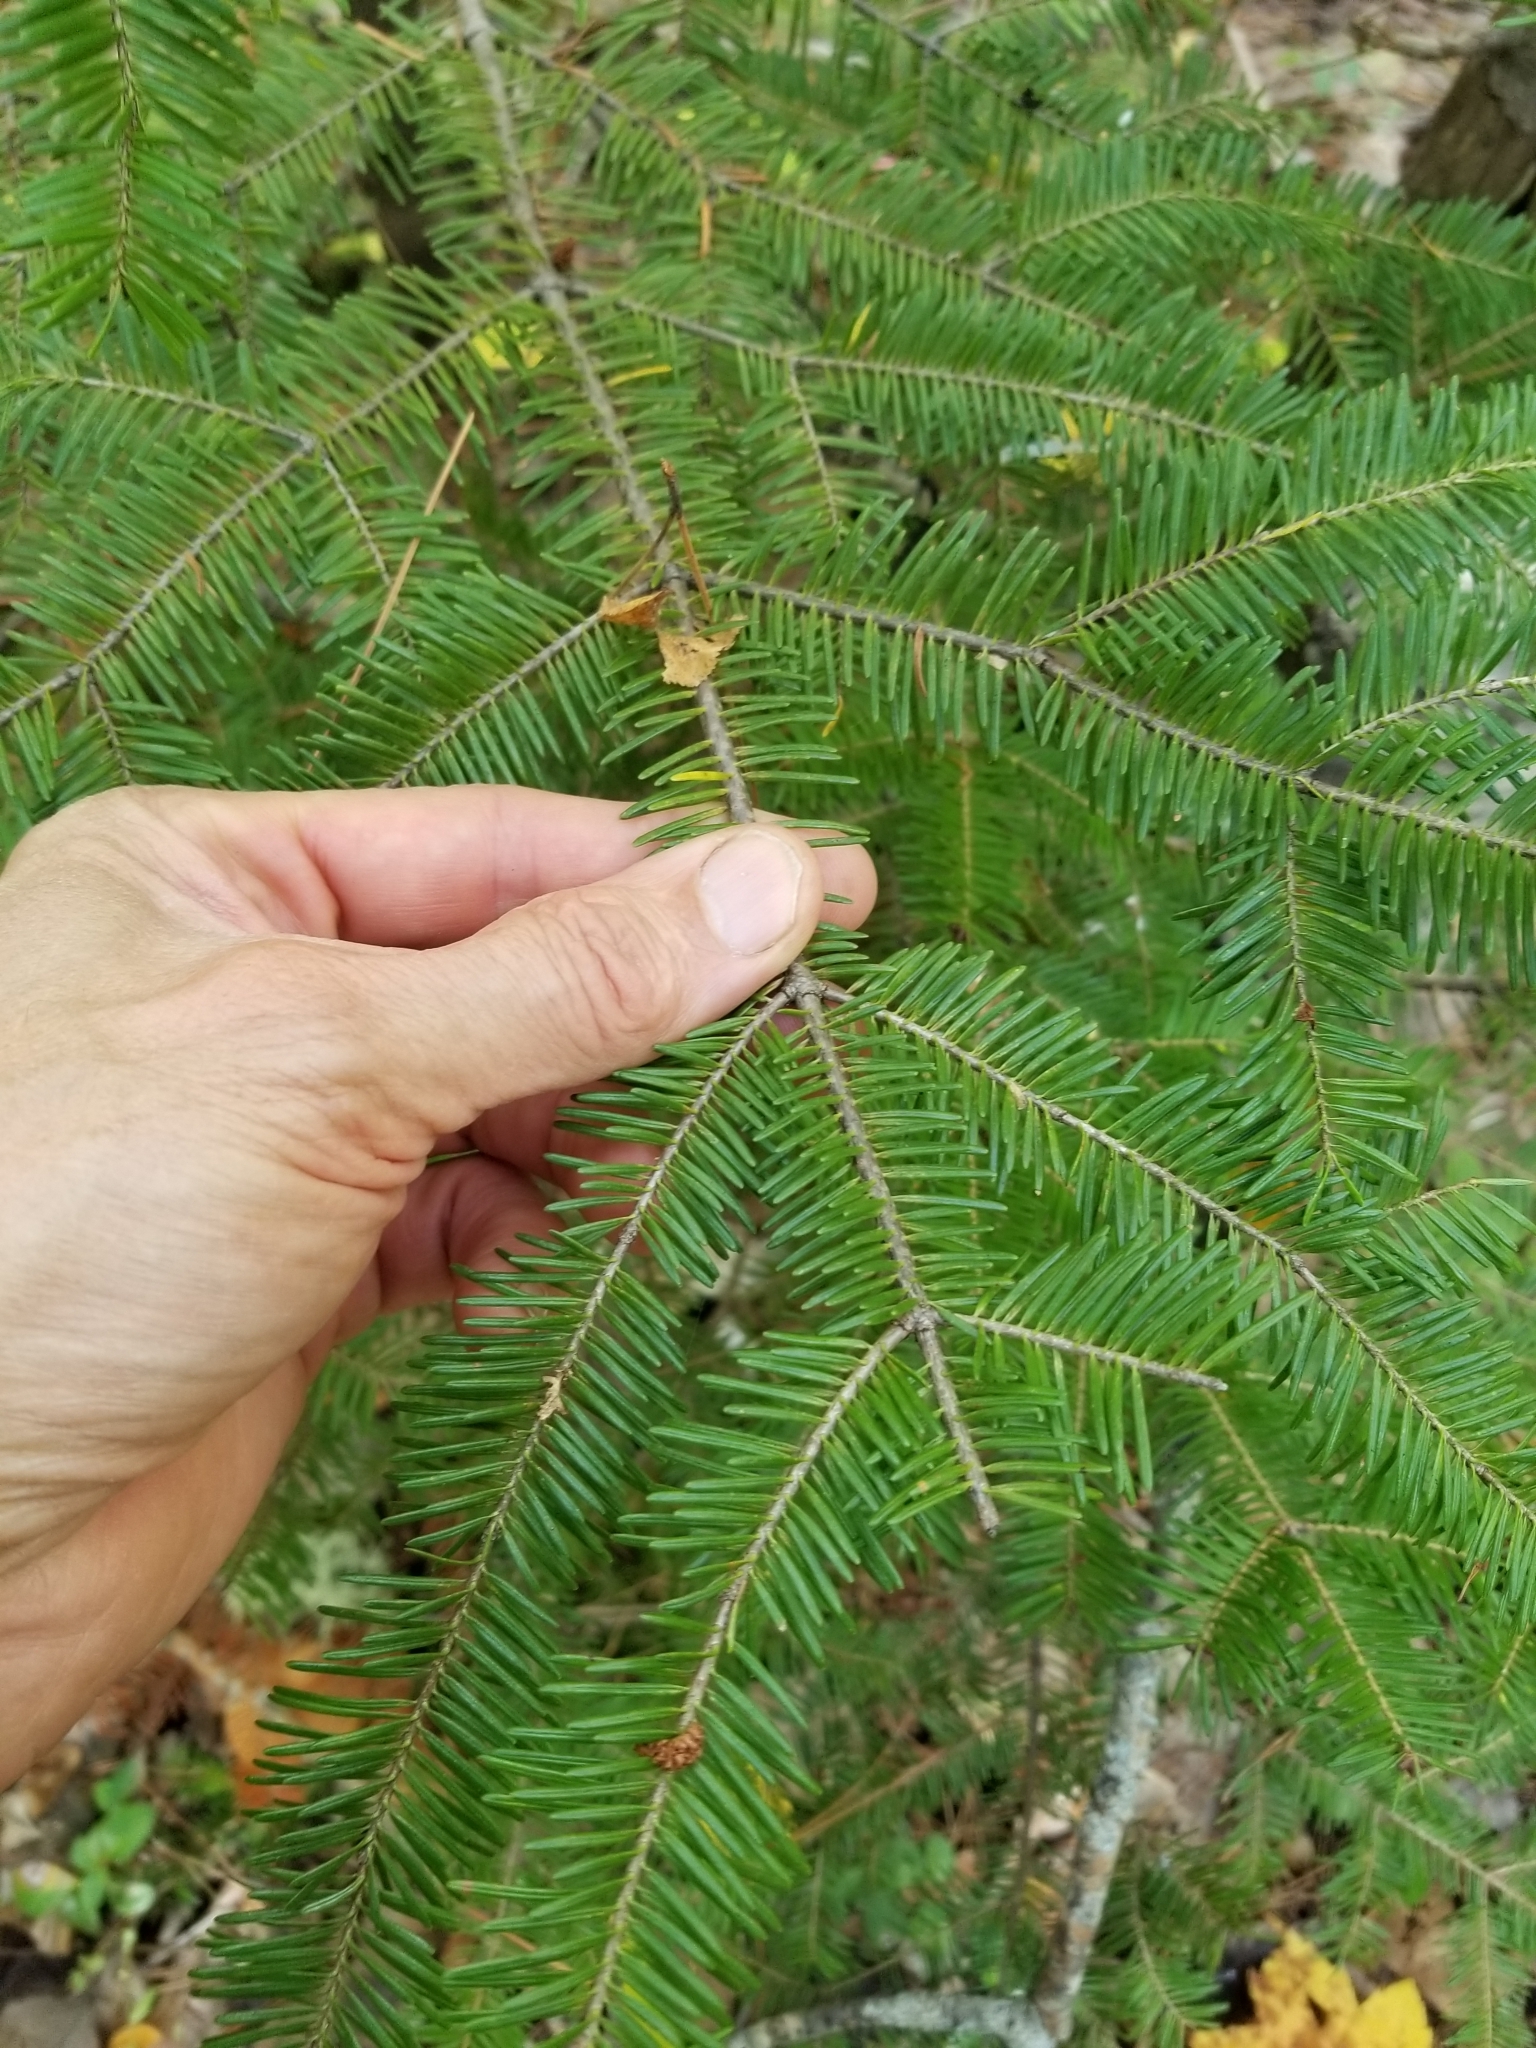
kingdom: Plantae
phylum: Tracheophyta
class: Pinopsida
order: Pinales
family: Pinaceae
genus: Abies
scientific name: Abies balsamea
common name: Balsam fir
